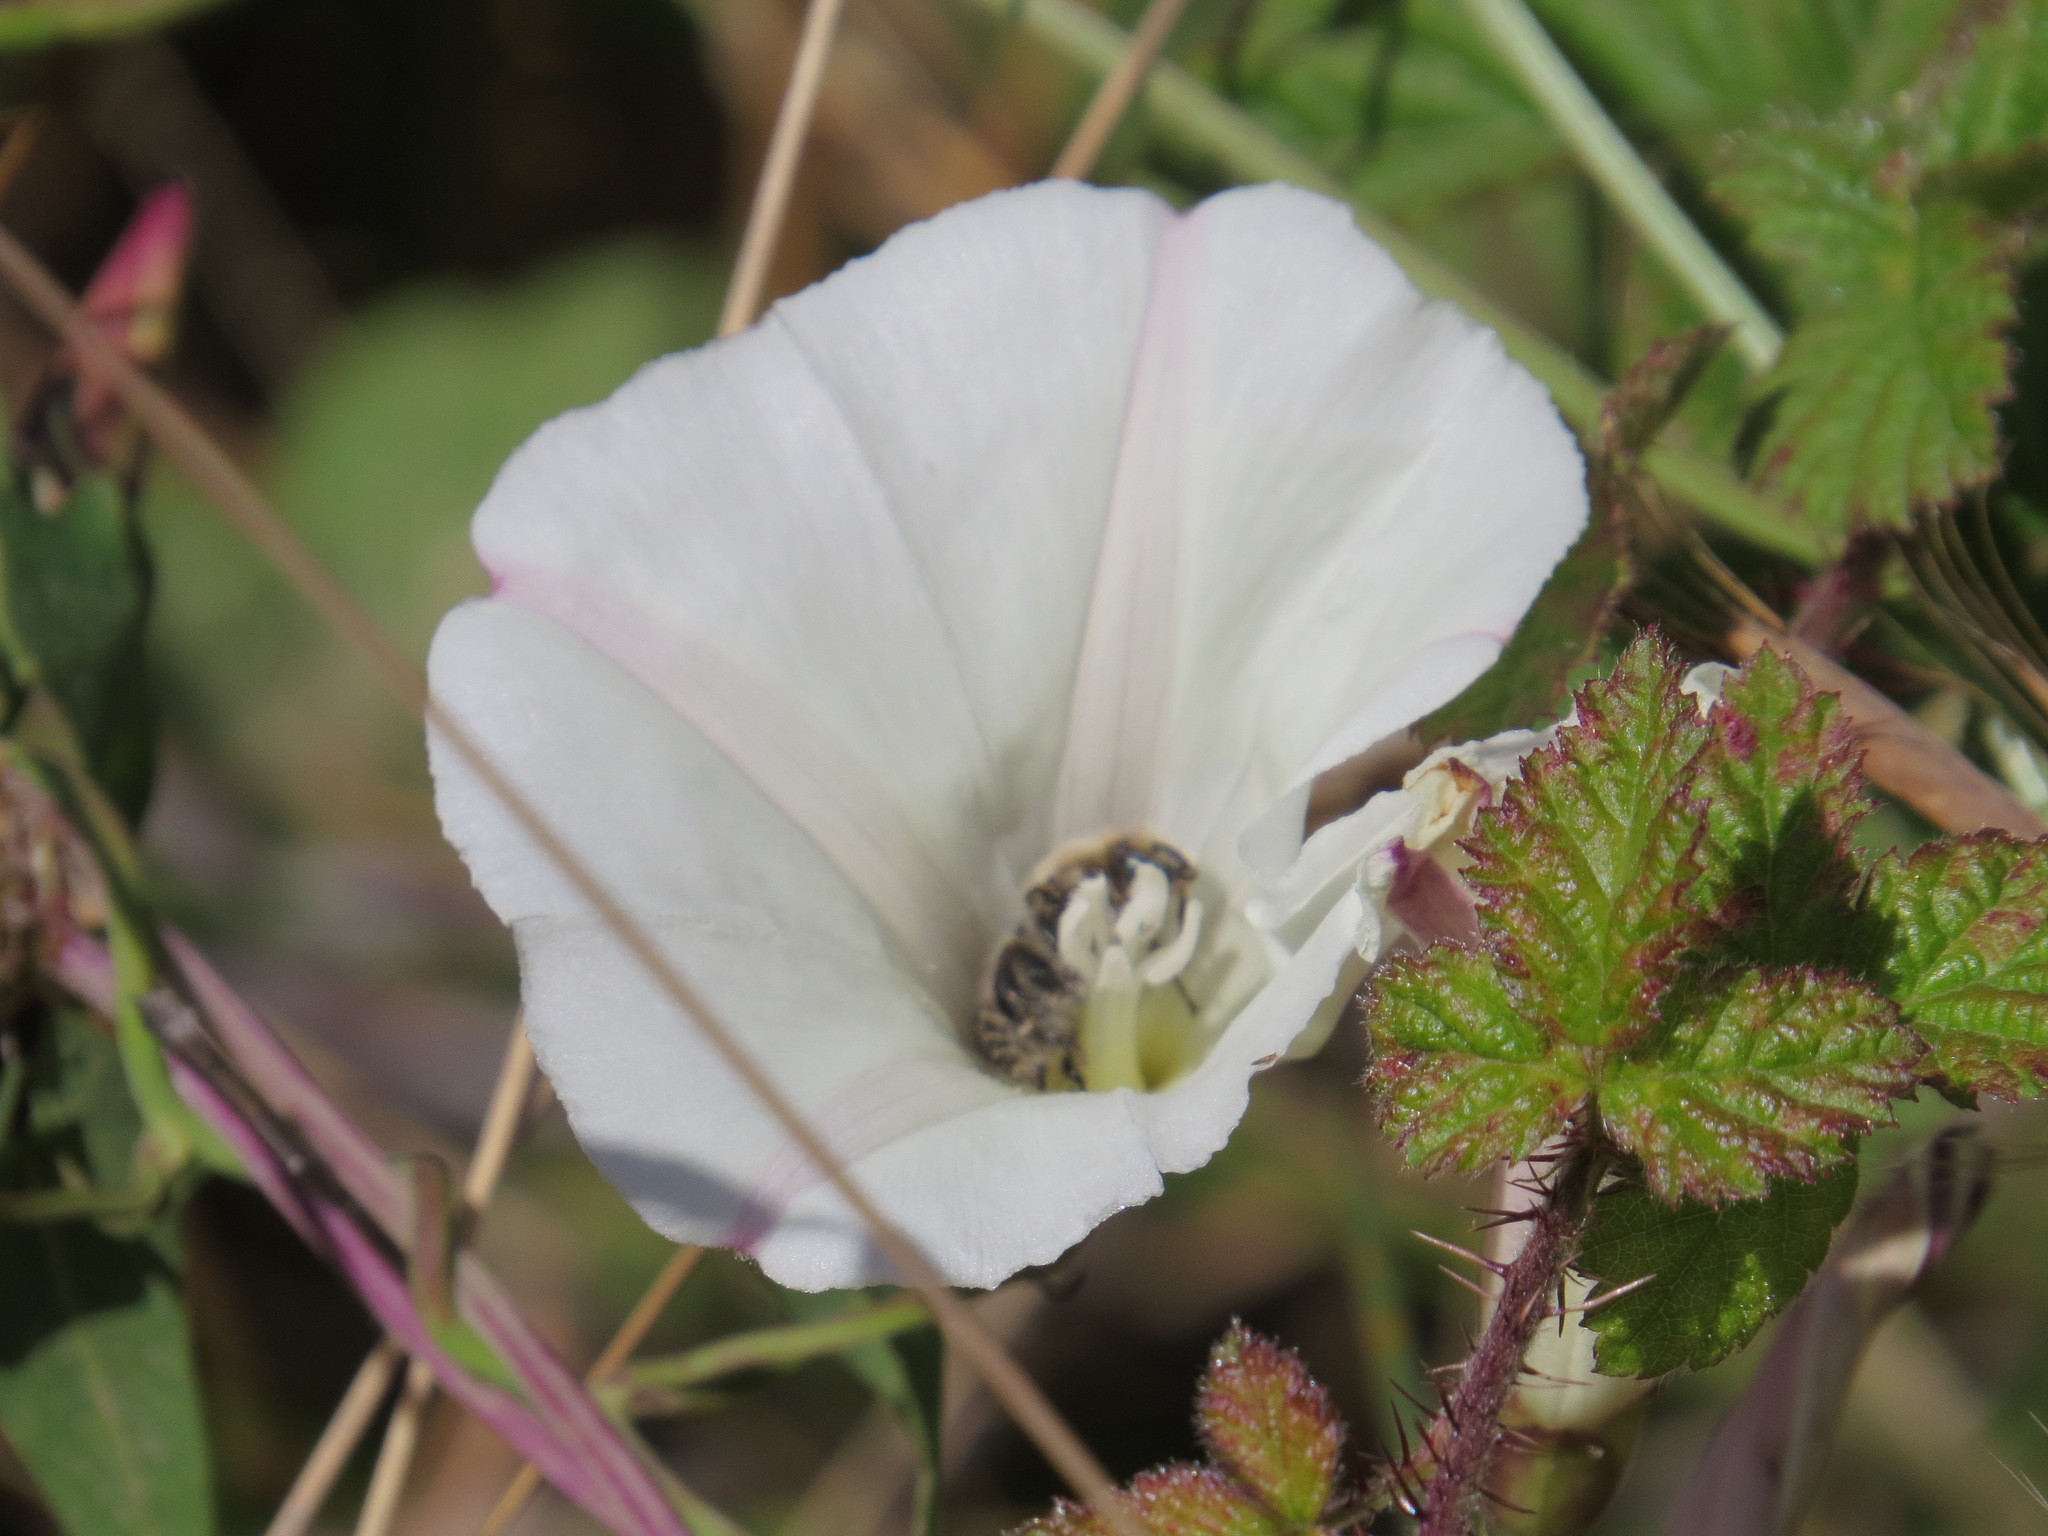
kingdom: Animalia
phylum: Arthropoda
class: Insecta
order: Hymenoptera
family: Apidae
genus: Diadasia
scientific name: Diadasia bituberculata
